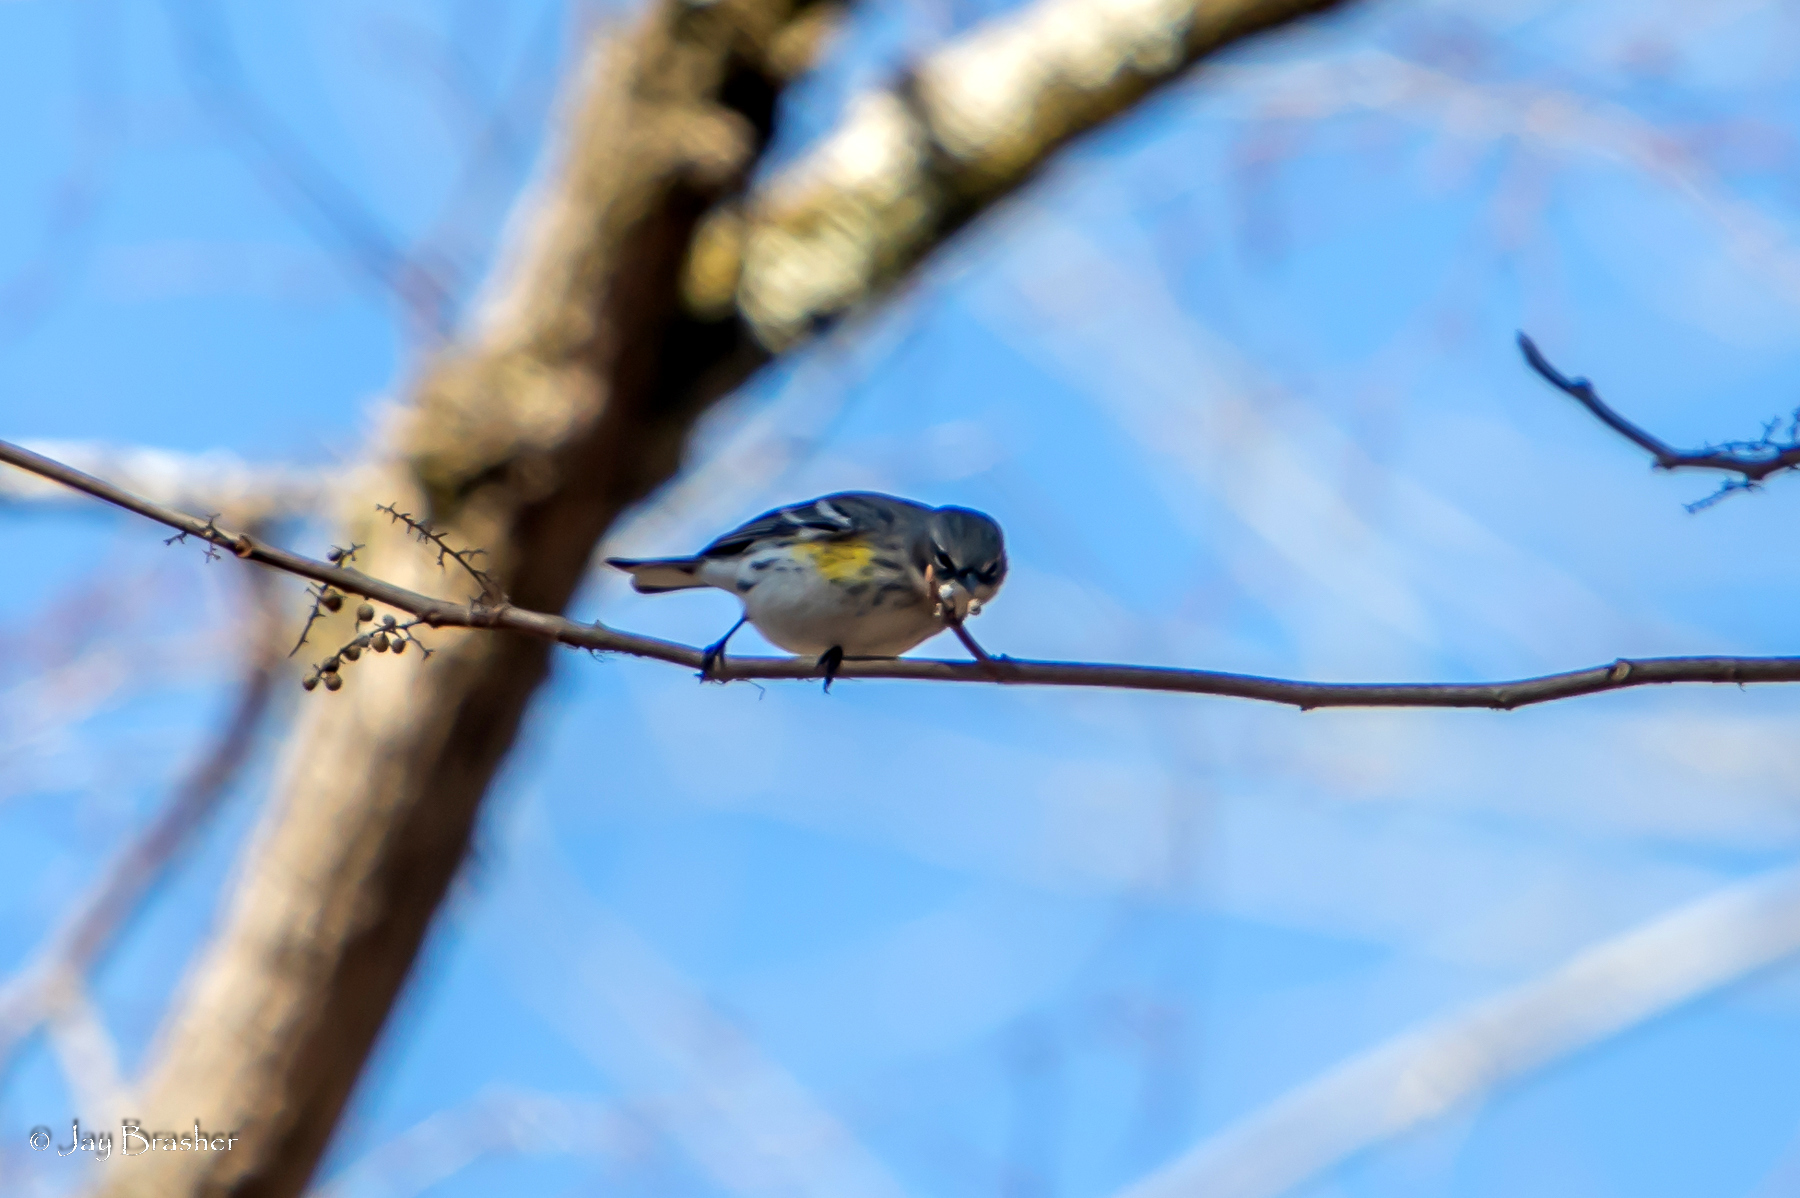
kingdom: Animalia
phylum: Chordata
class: Aves
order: Passeriformes
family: Parulidae
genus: Setophaga
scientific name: Setophaga coronata
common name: Myrtle warbler
